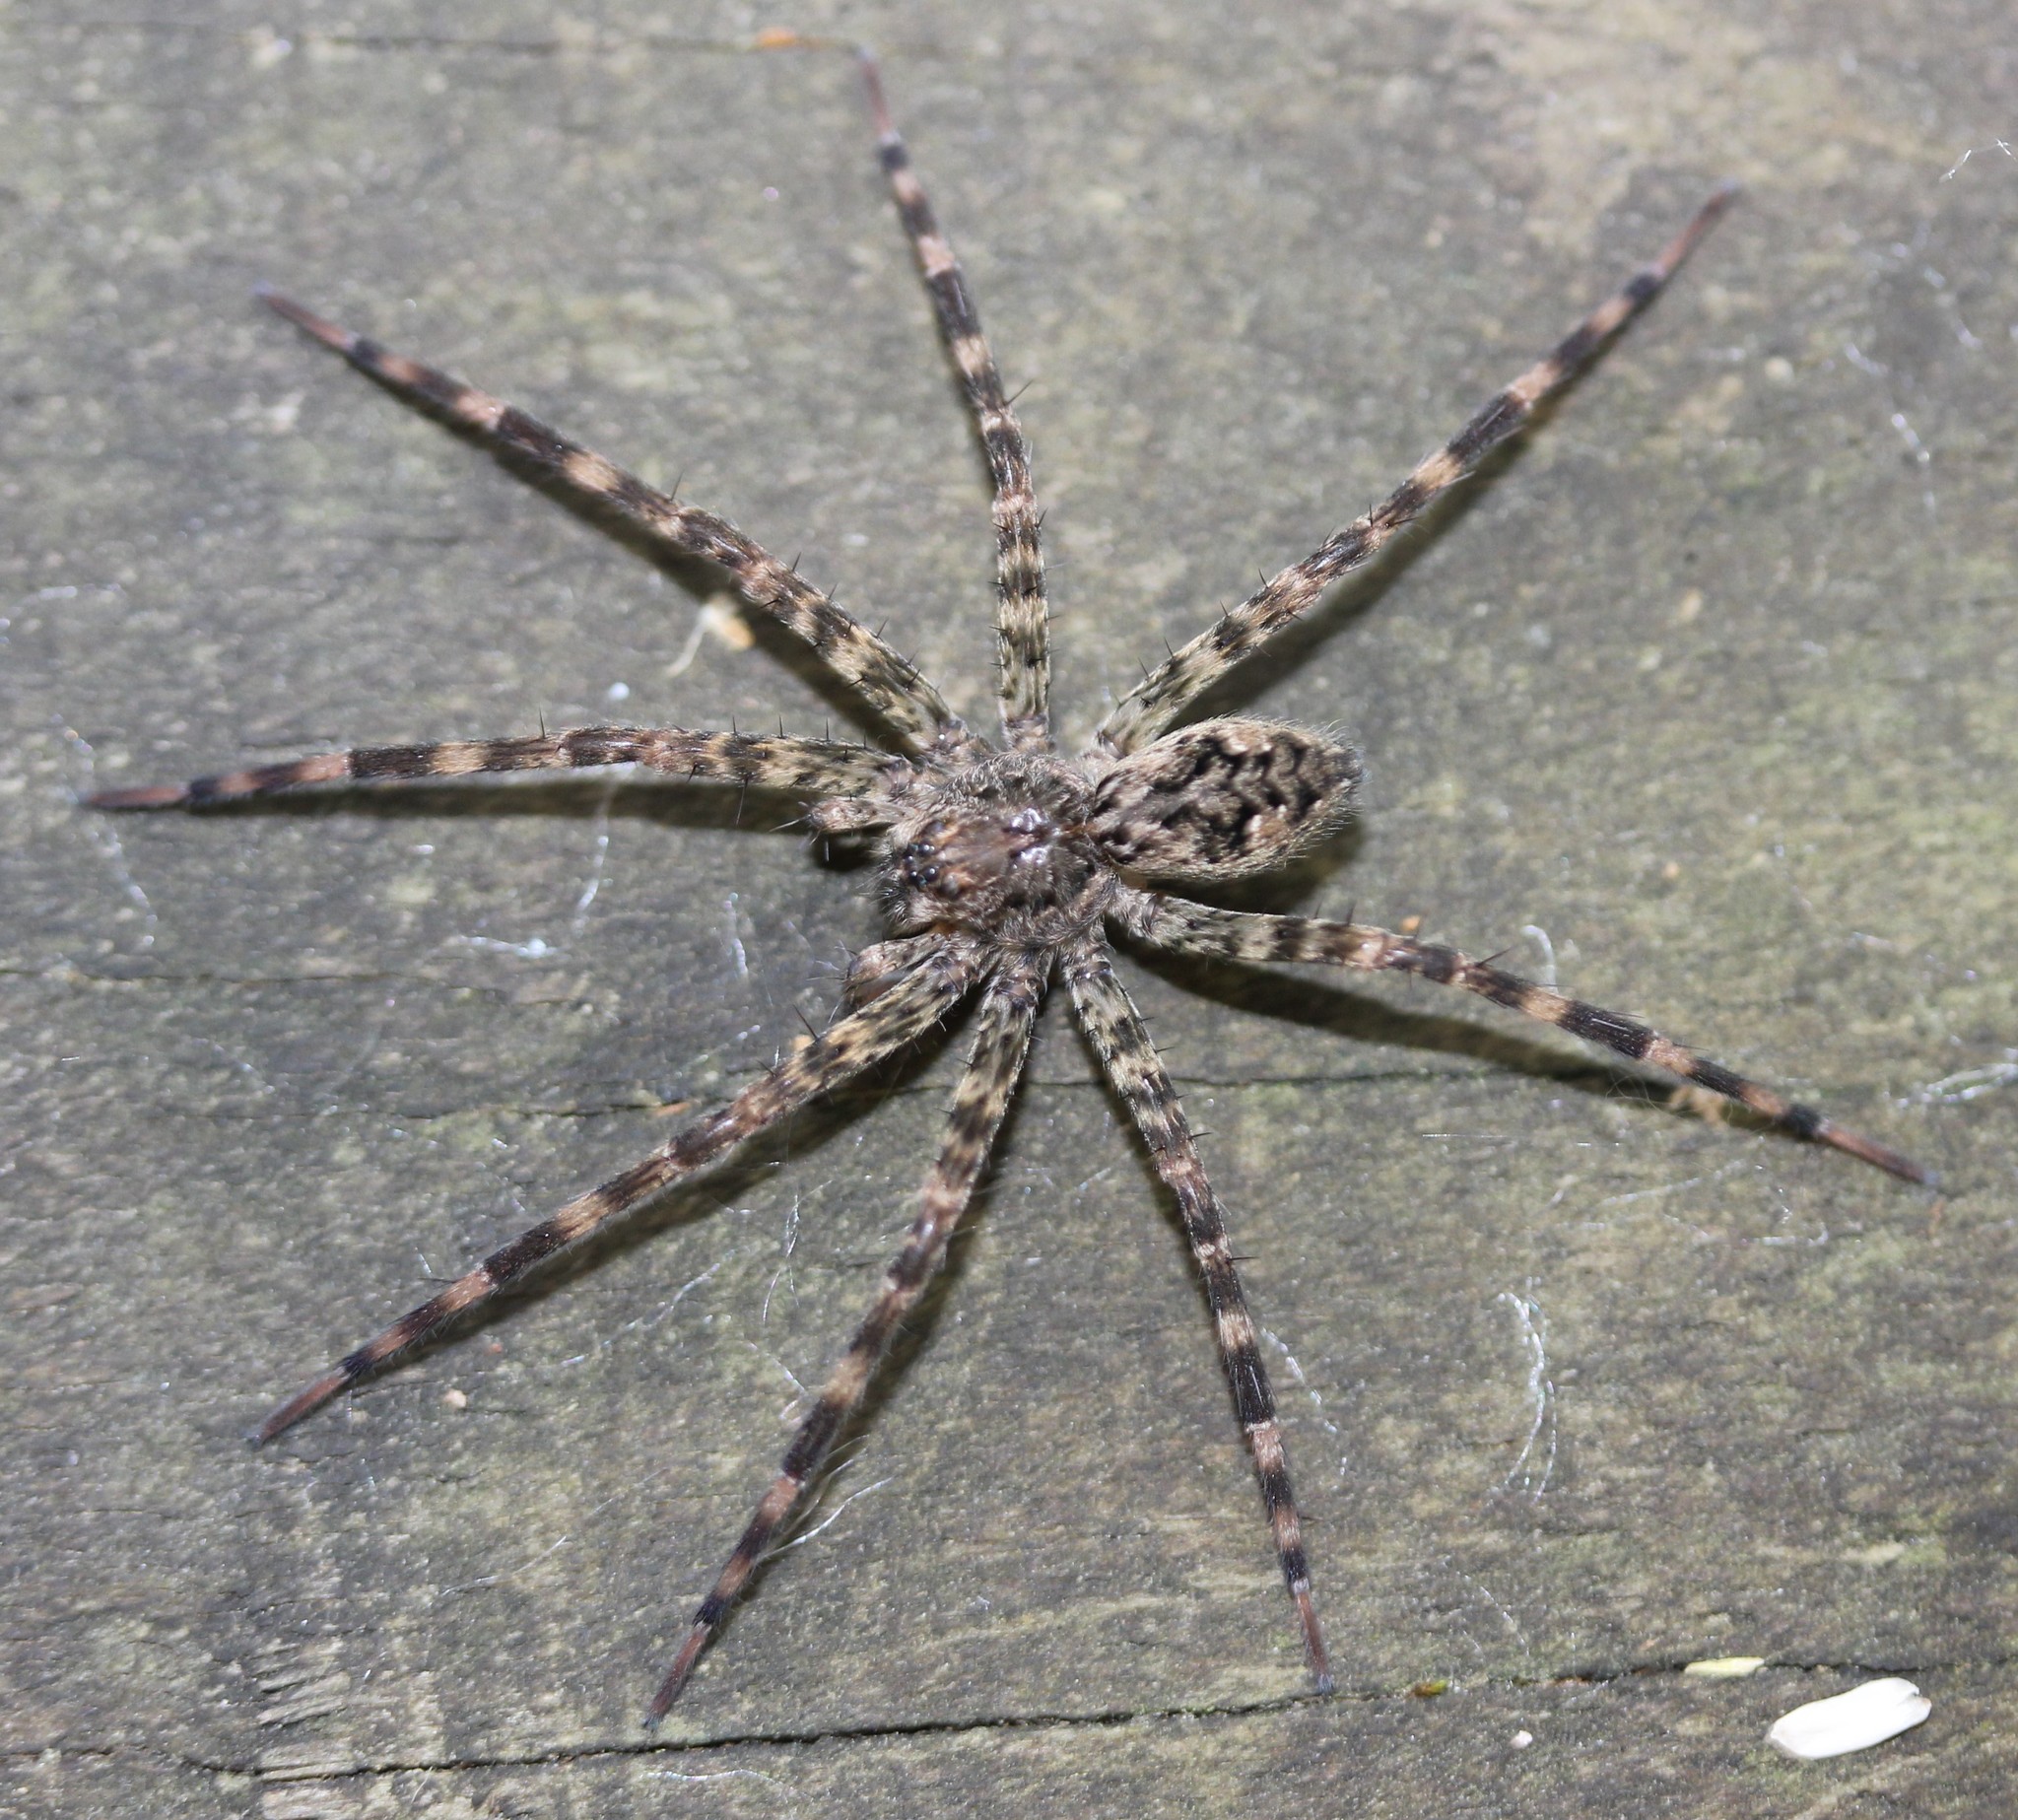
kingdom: Animalia
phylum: Arthropoda
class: Arachnida
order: Araneae
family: Pisauridae
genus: Dolomedes
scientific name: Dolomedes tenebrosus
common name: Dark fishing spider
